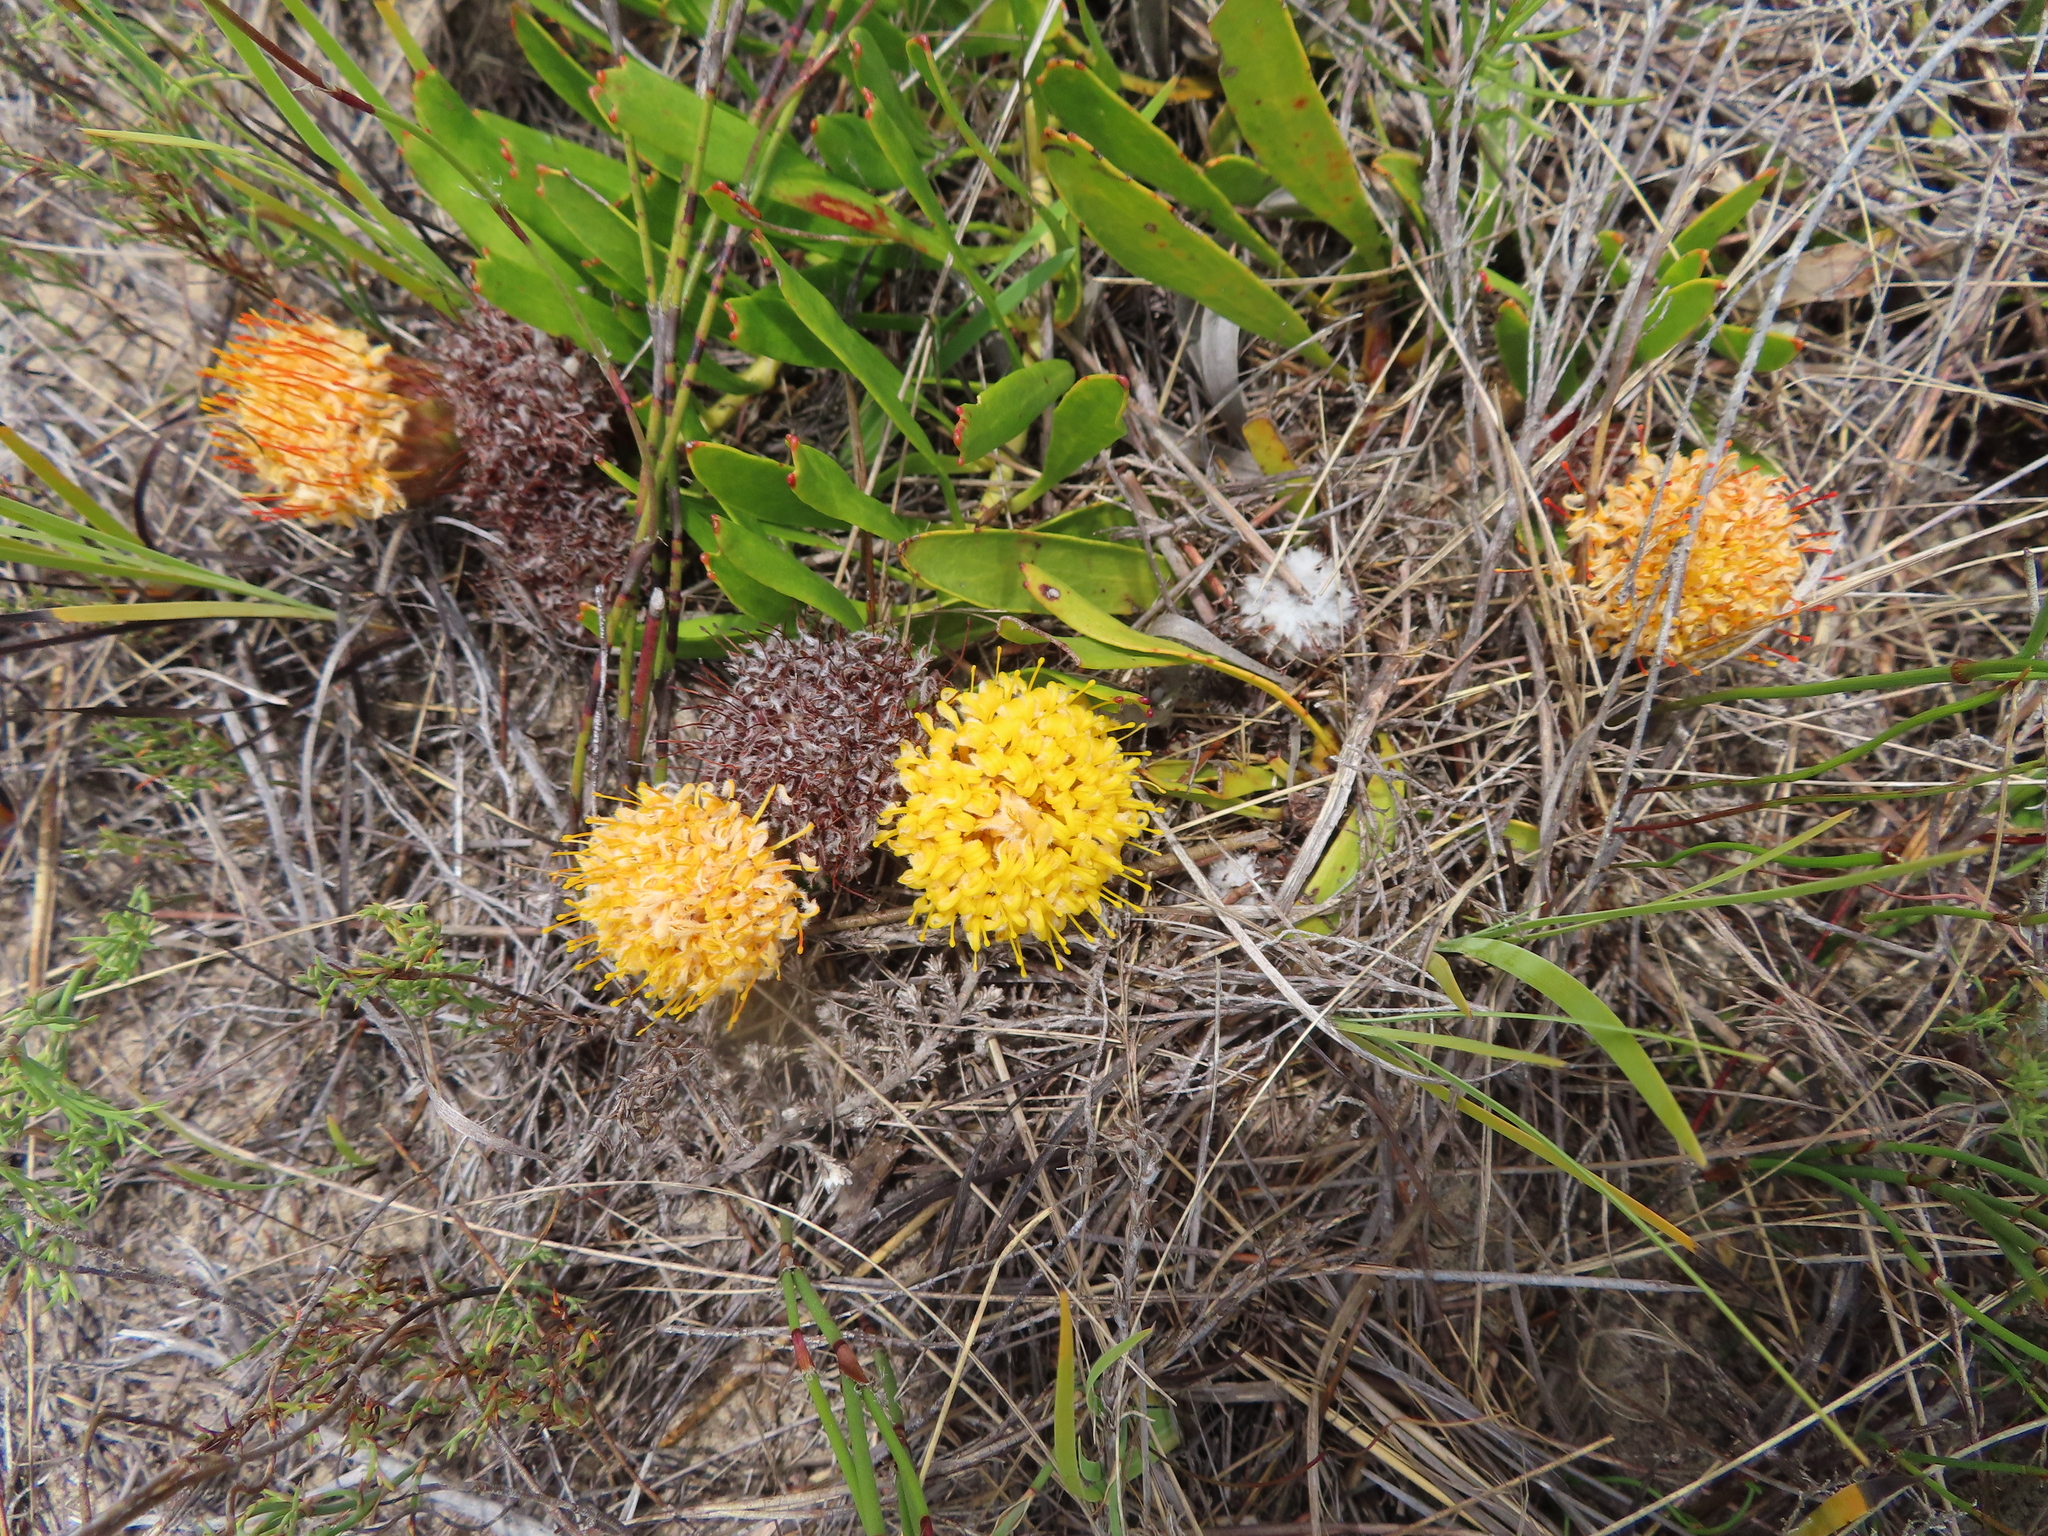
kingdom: Plantae
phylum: Tracheophyta
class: Magnoliopsida
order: Proteales
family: Proteaceae
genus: Leucospermum
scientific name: Leucospermum hypophyllocarpodendron
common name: Snakestem pincushion
